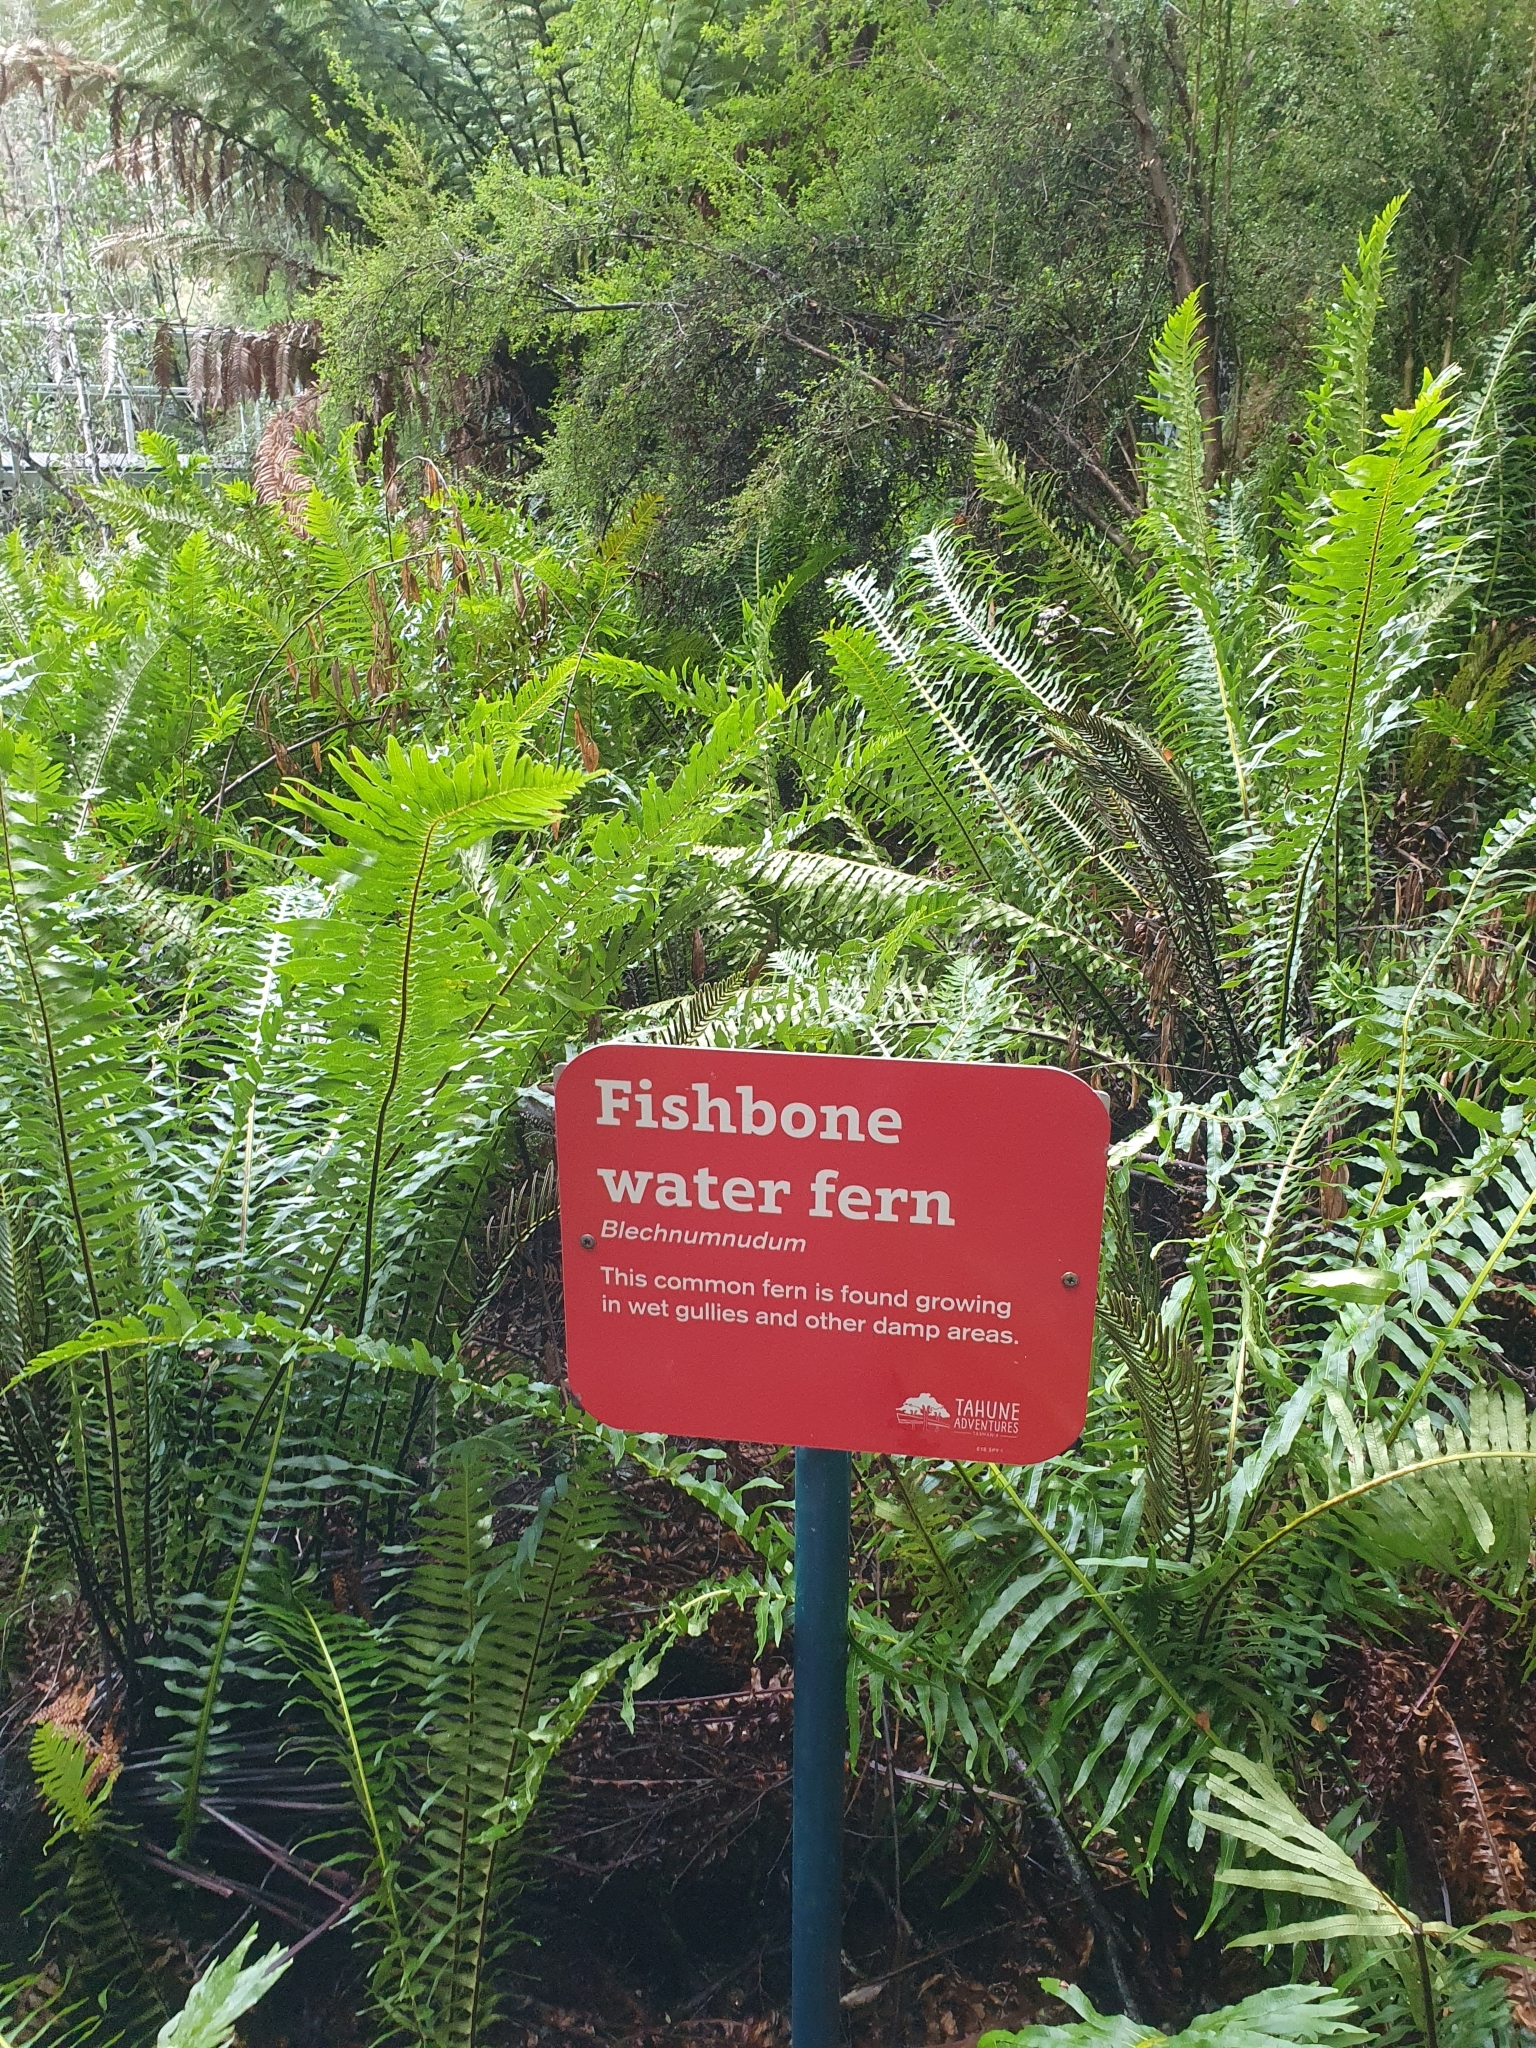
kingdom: Plantae
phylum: Tracheophyta
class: Polypodiopsida
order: Polypodiales
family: Blechnaceae
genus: Lomaria
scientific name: Lomaria nuda
